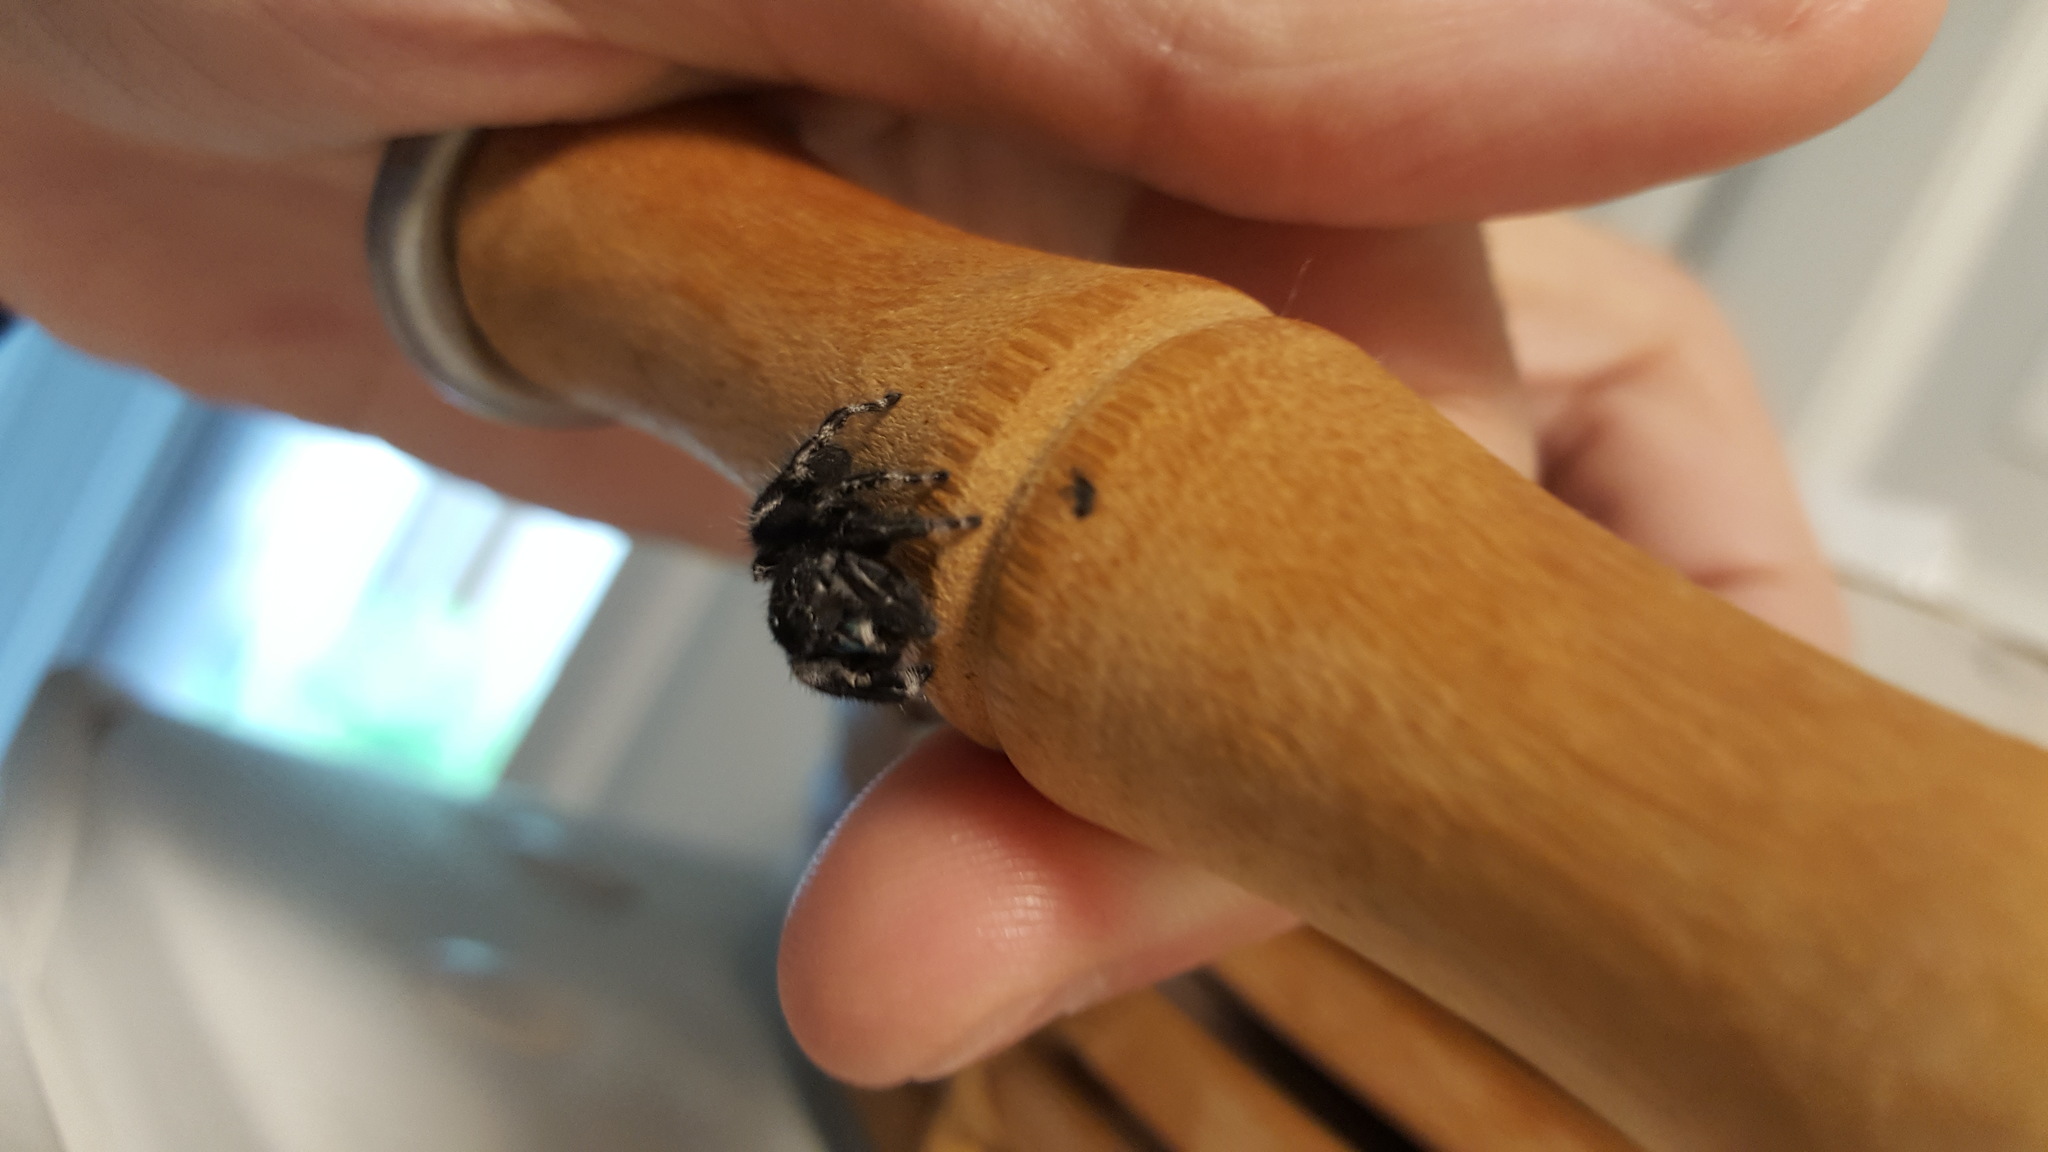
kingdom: Animalia
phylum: Arthropoda
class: Arachnida
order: Araneae
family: Salticidae
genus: Phidippus
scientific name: Phidippus audax
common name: Bold jumper
